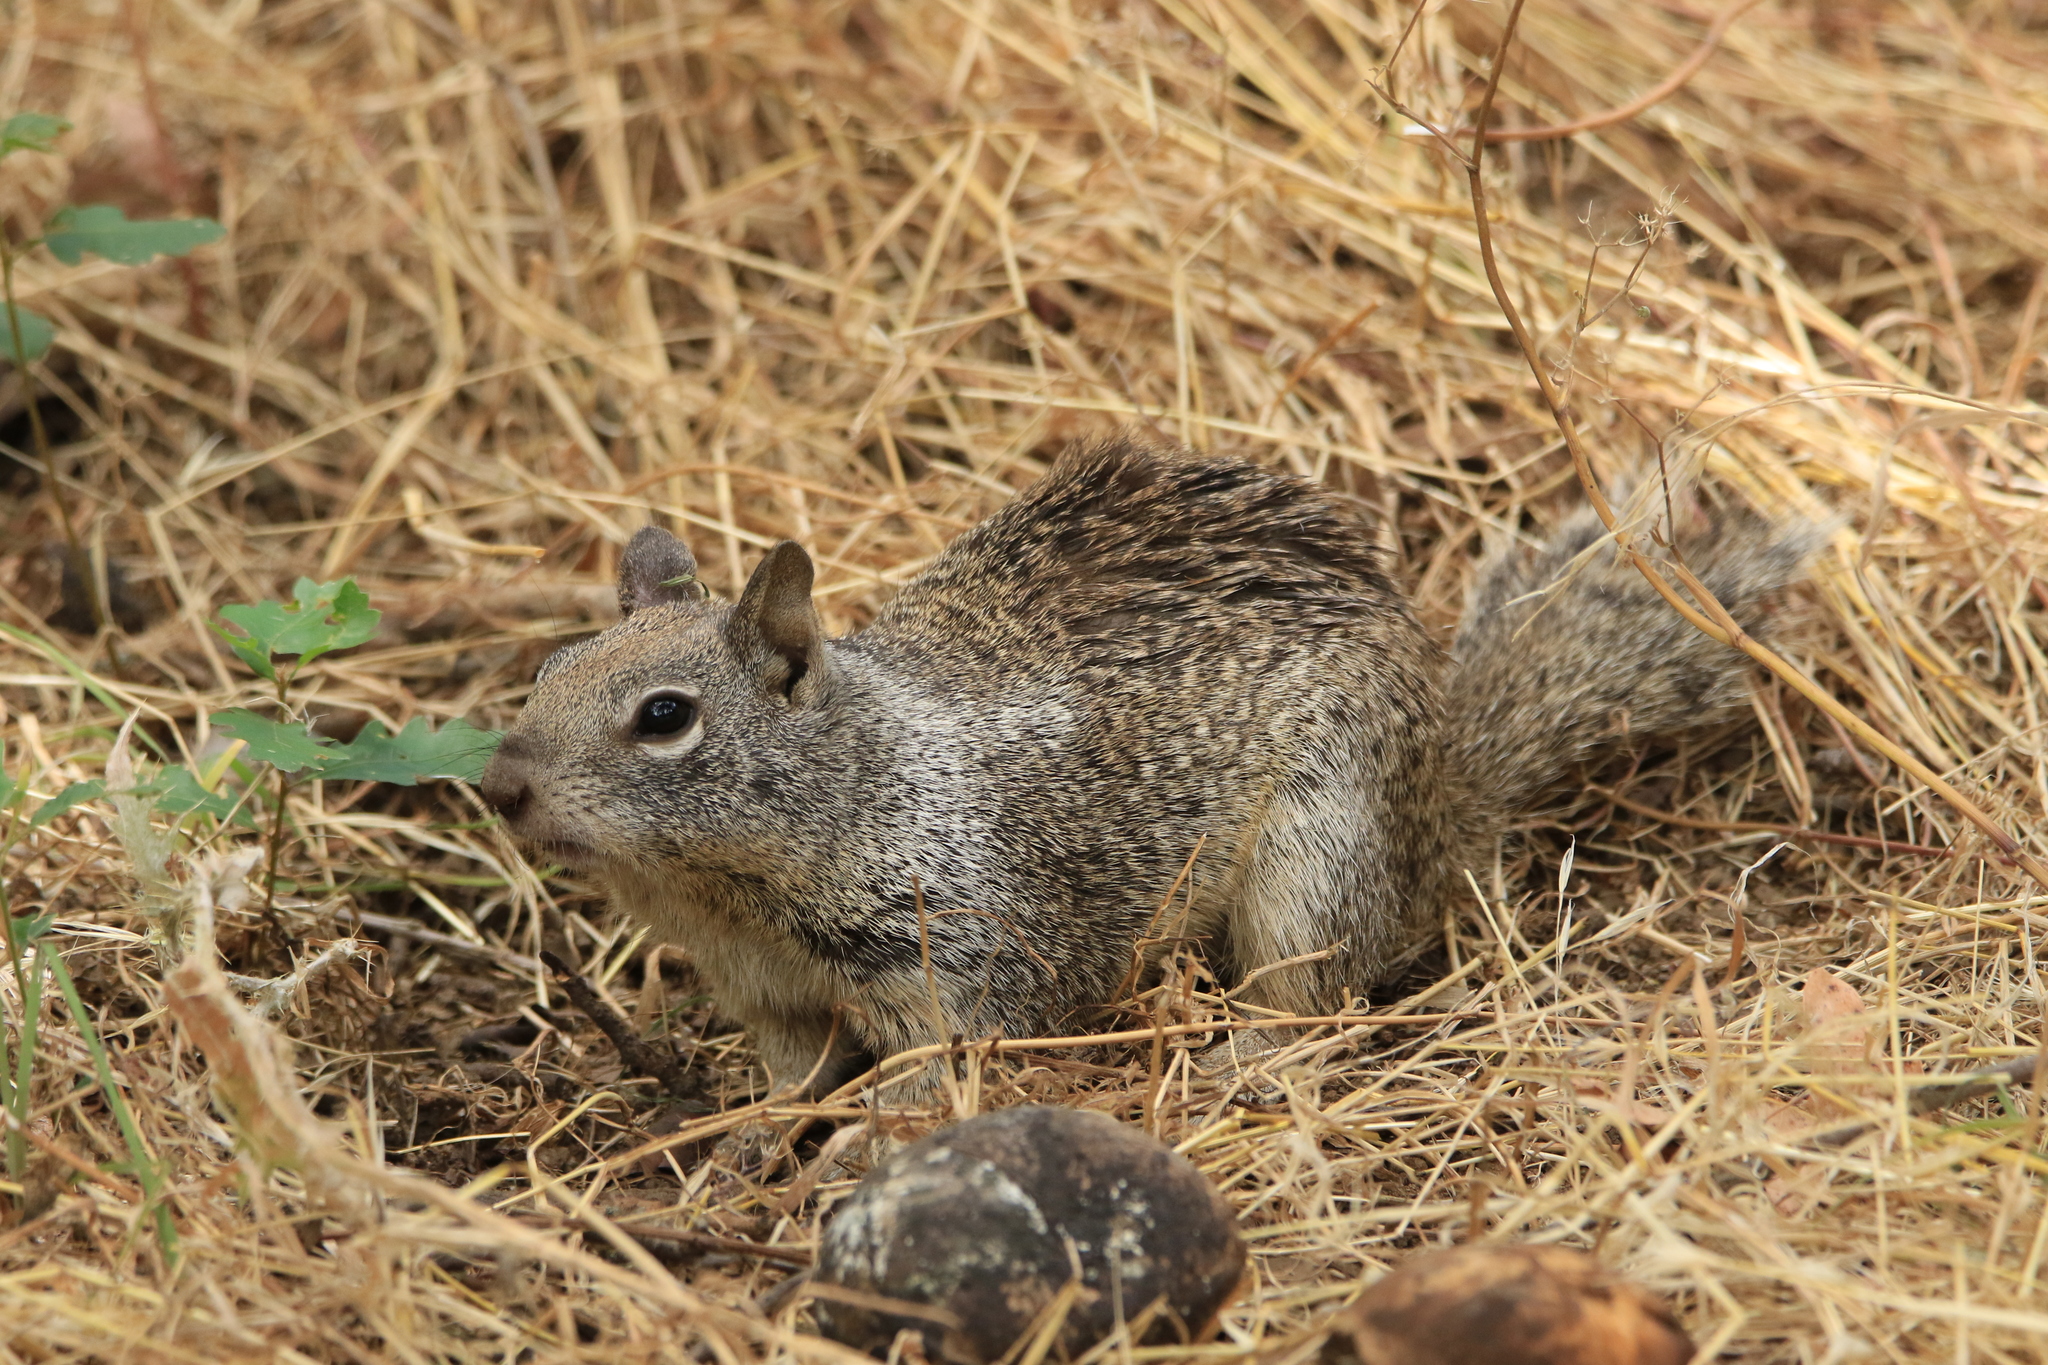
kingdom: Animalia
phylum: Chordata
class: Mammalia
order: Rodentia
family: Sciuridae
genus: Otospermophilus
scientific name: Otospermophilus beecheyi
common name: California ground squirrel
